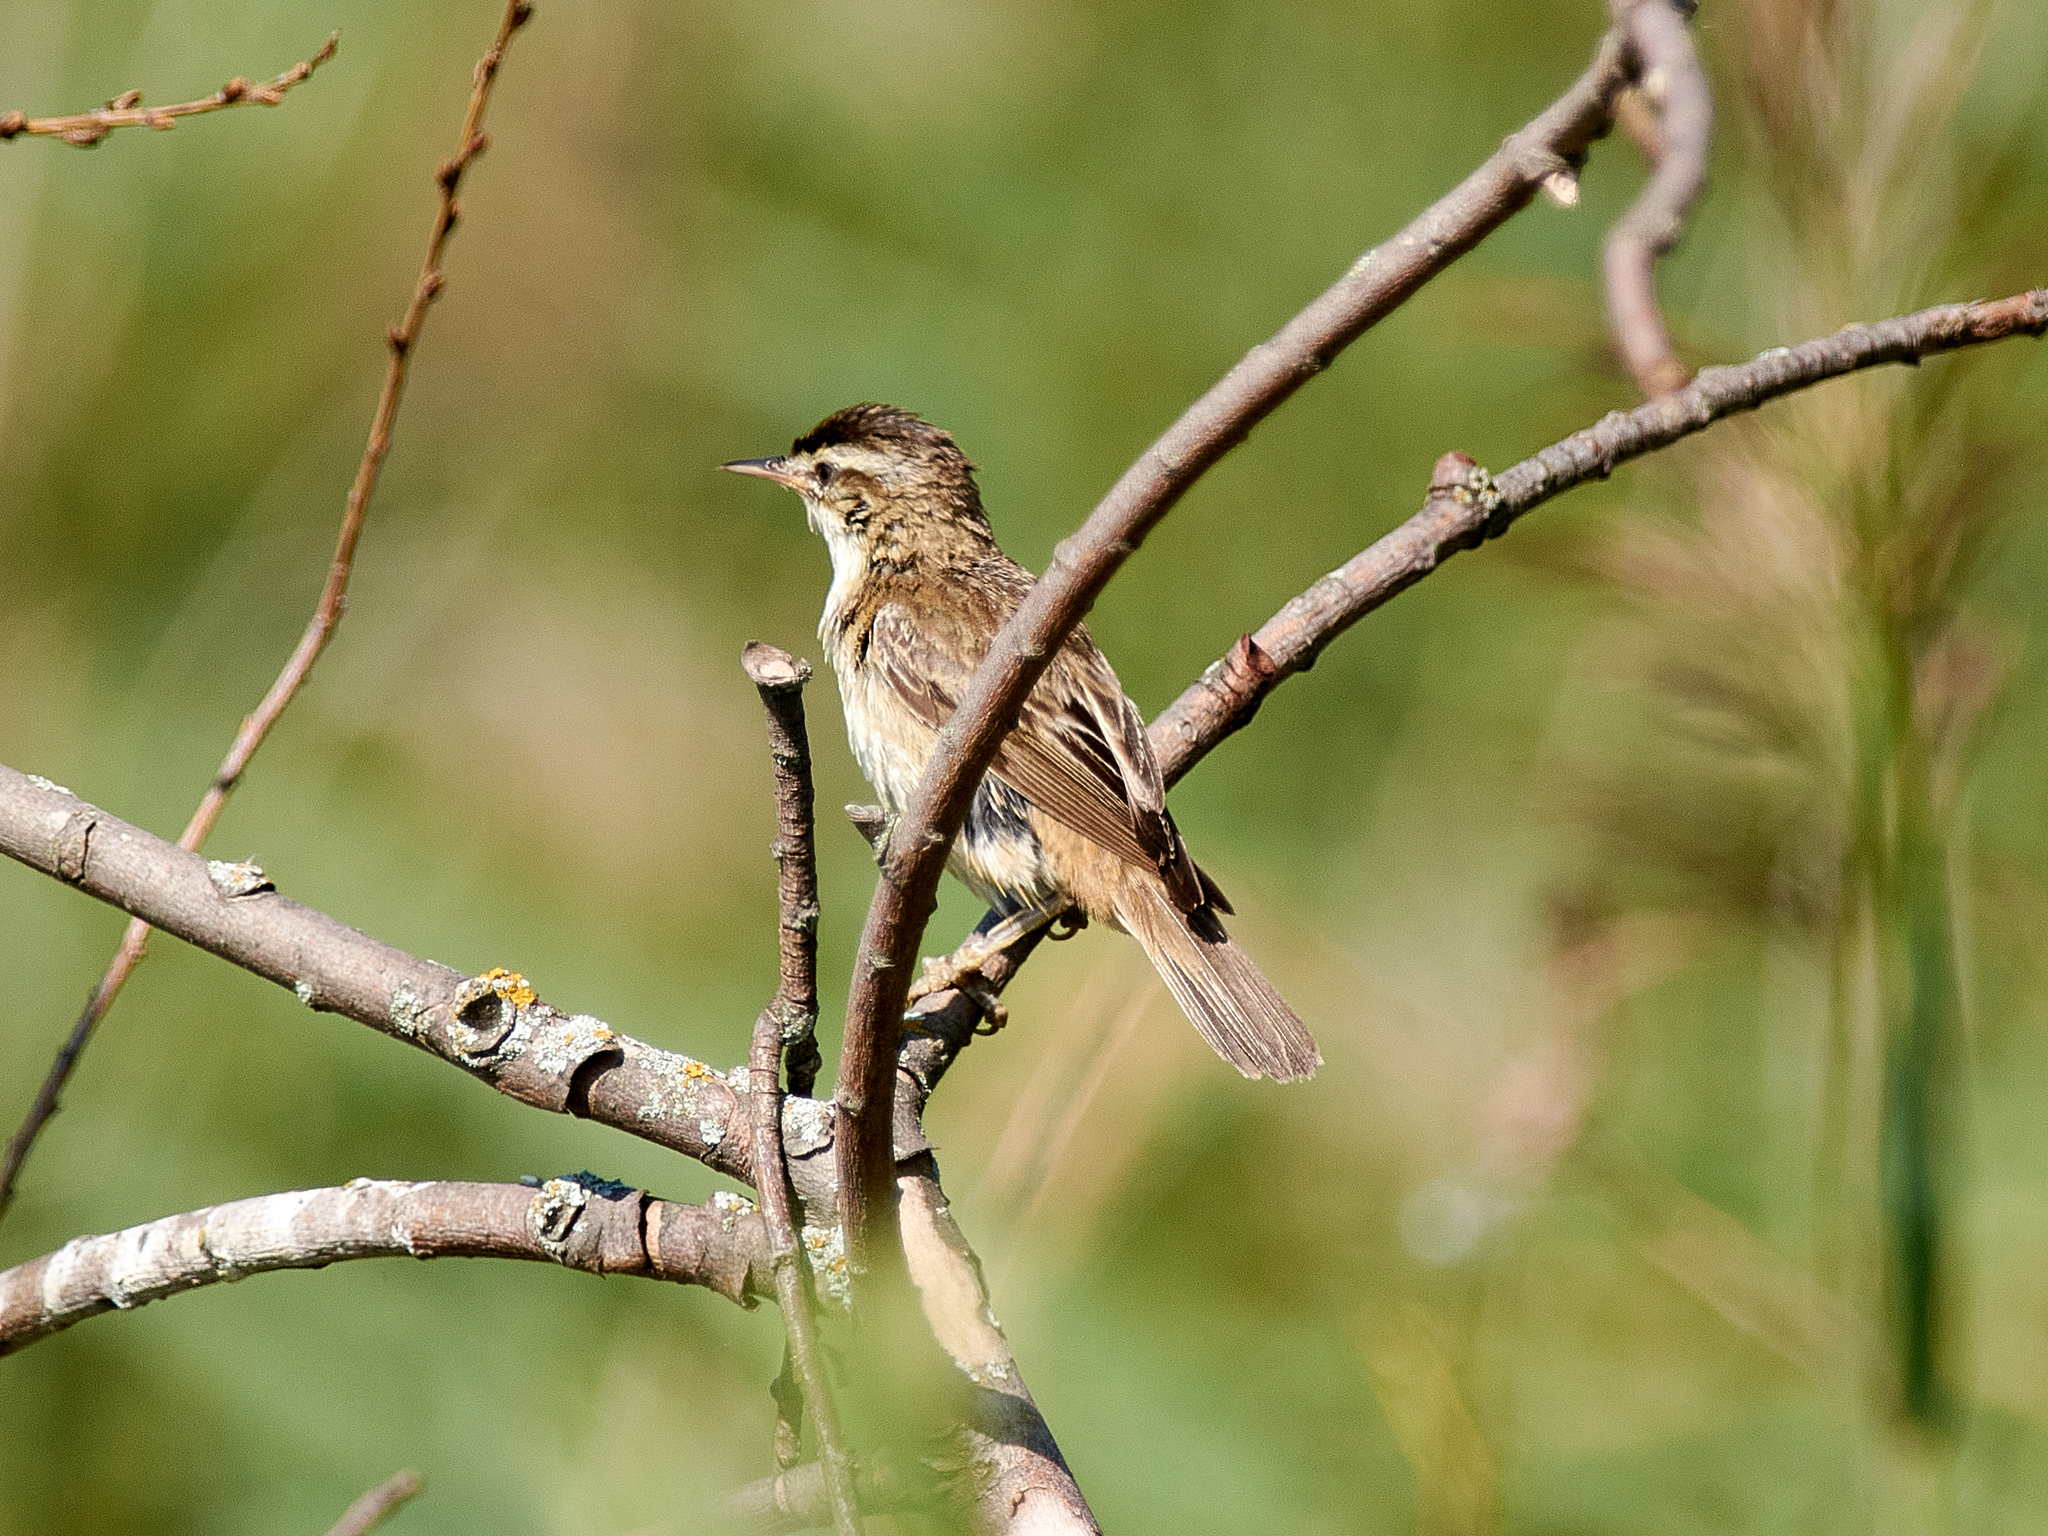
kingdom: Animalia
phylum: Chordata
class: Aves
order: Passeriformes
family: Acrocephalidae
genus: Acrocephalus
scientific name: Acrocephalus schoenobaenus
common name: Sedge warbler
